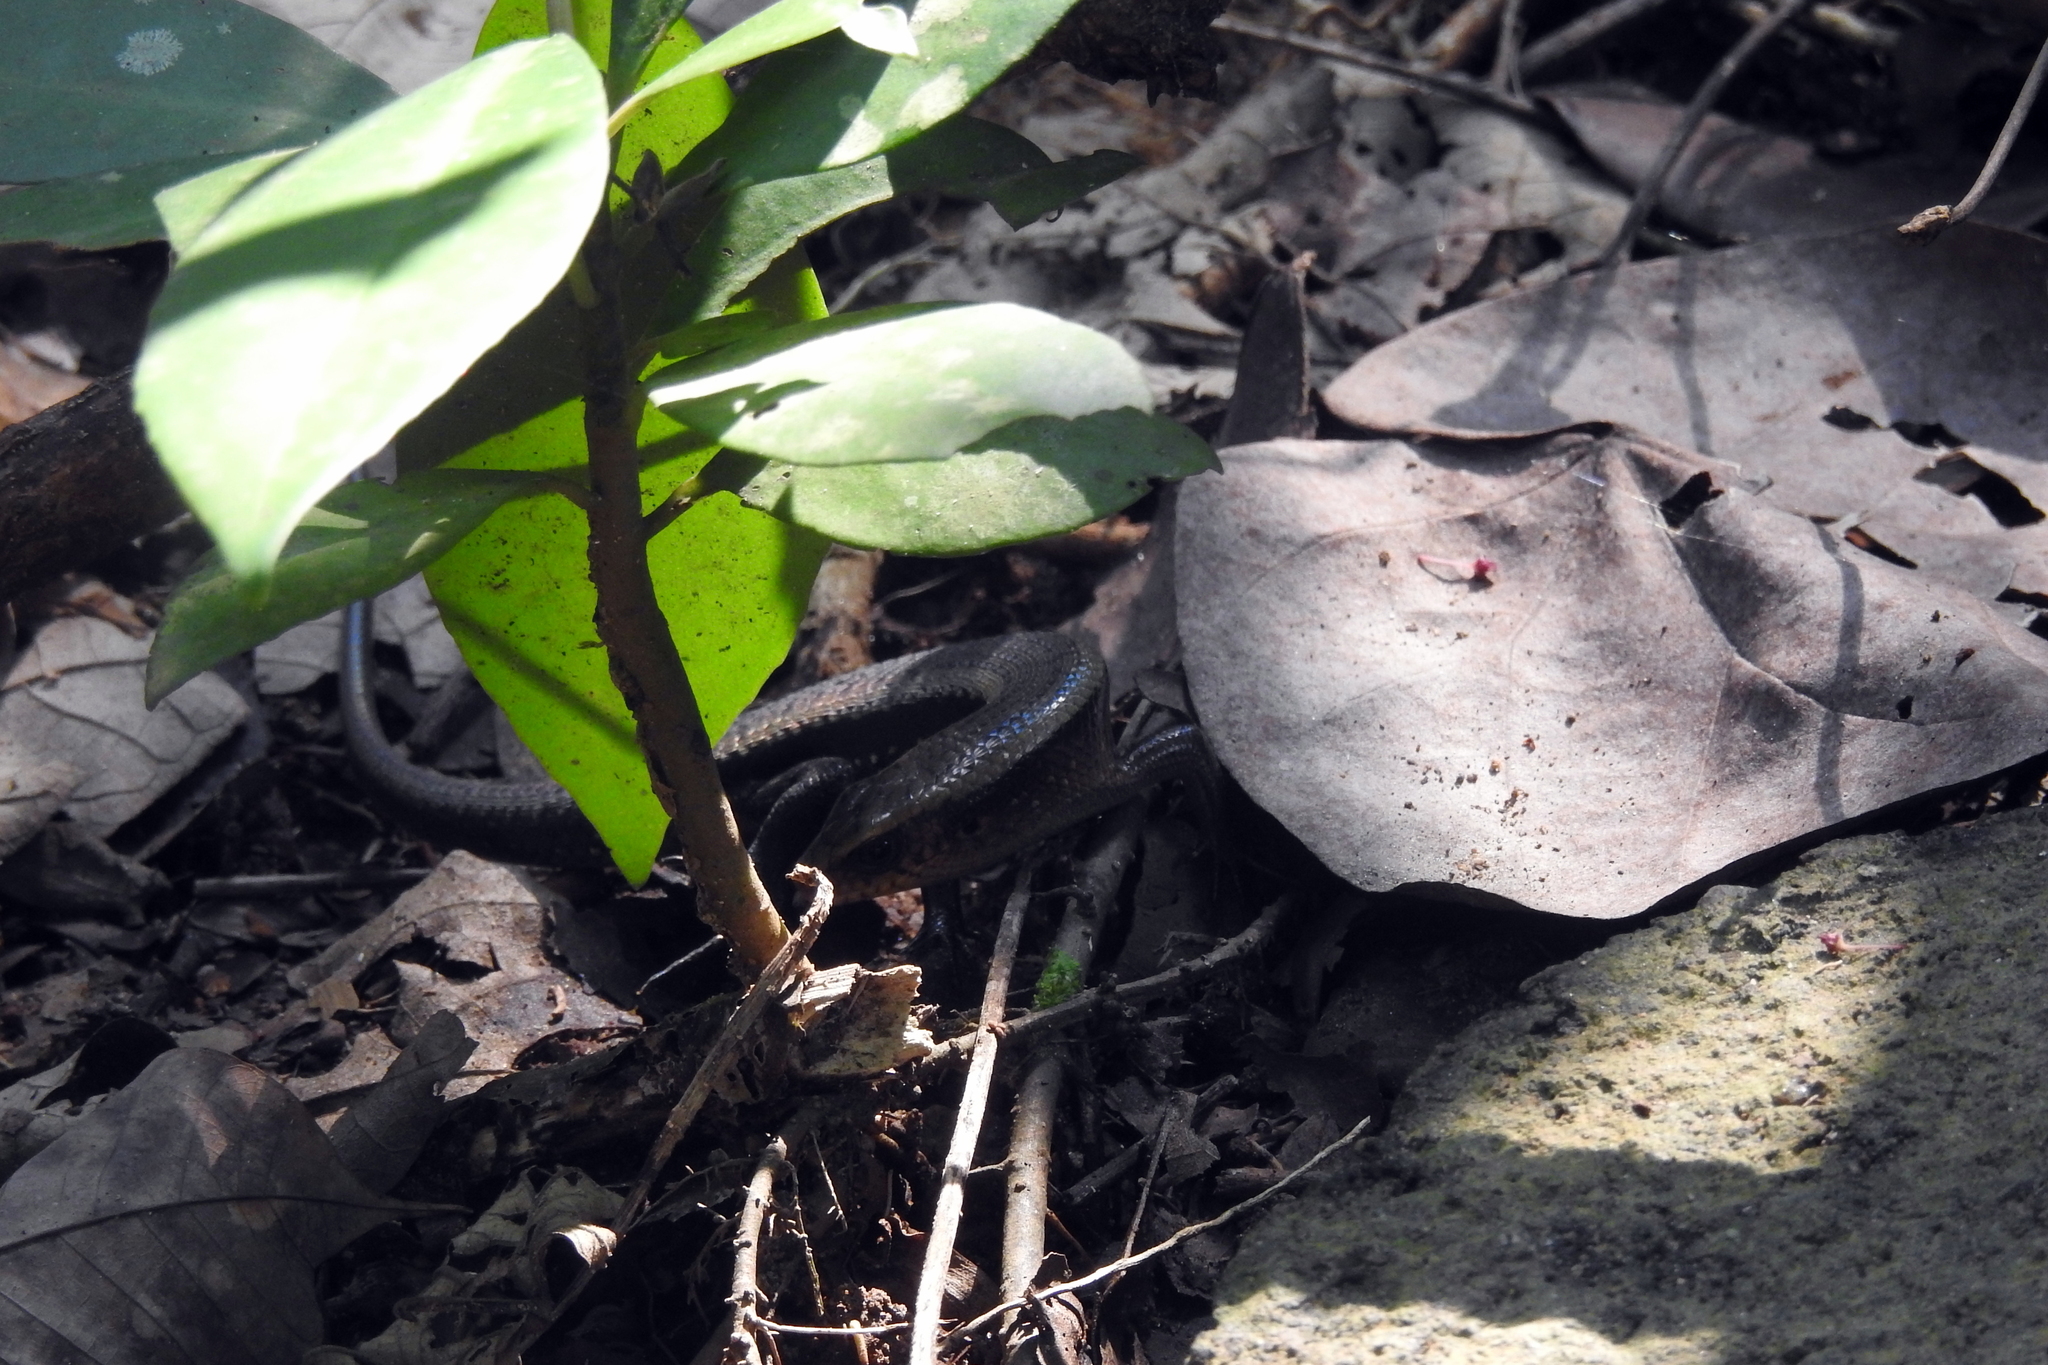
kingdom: Animalia
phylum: Chordata
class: Squamata
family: Scincidae
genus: Eutropis
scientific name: Eutropis multifasciata
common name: Common mabuya
